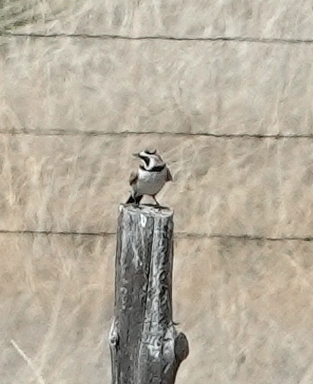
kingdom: Animalia
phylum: Chordata
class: Aves
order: Passeriformes
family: Alaudidae
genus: Eremophila
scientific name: Eremophila alpestris
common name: Horned lark
